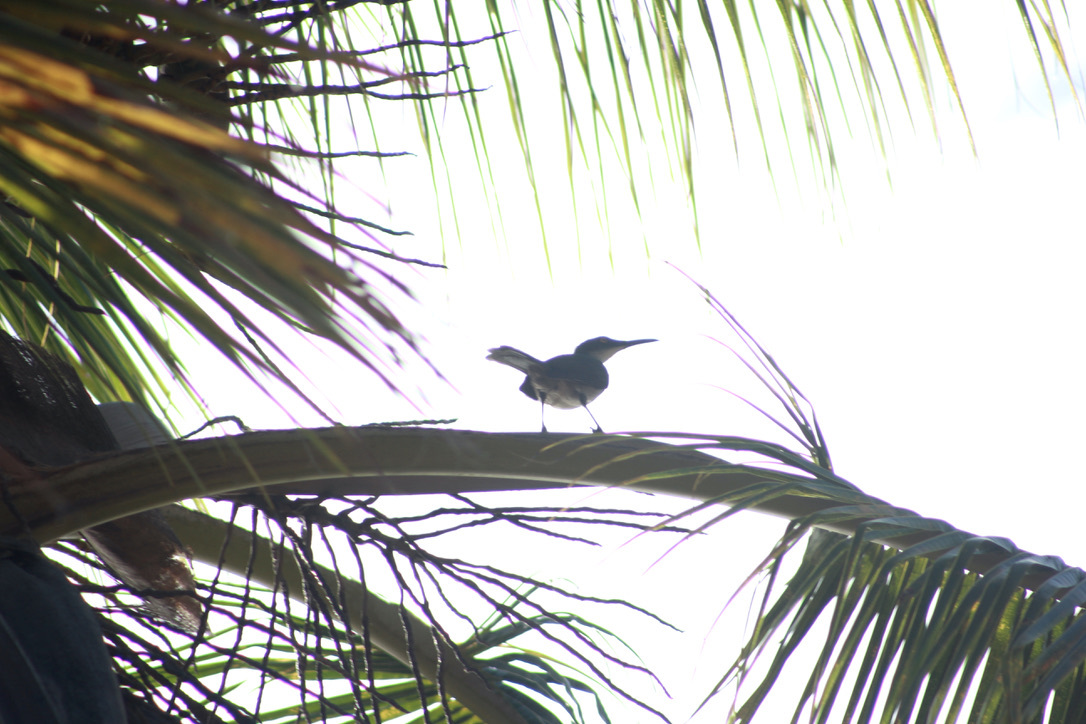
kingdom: Animalia
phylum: Chordata
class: Aves
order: Passeriformes
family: Mimidae
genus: Cinclocerthia
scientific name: Cinclocerthia gutturalis
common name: Gray trembler
